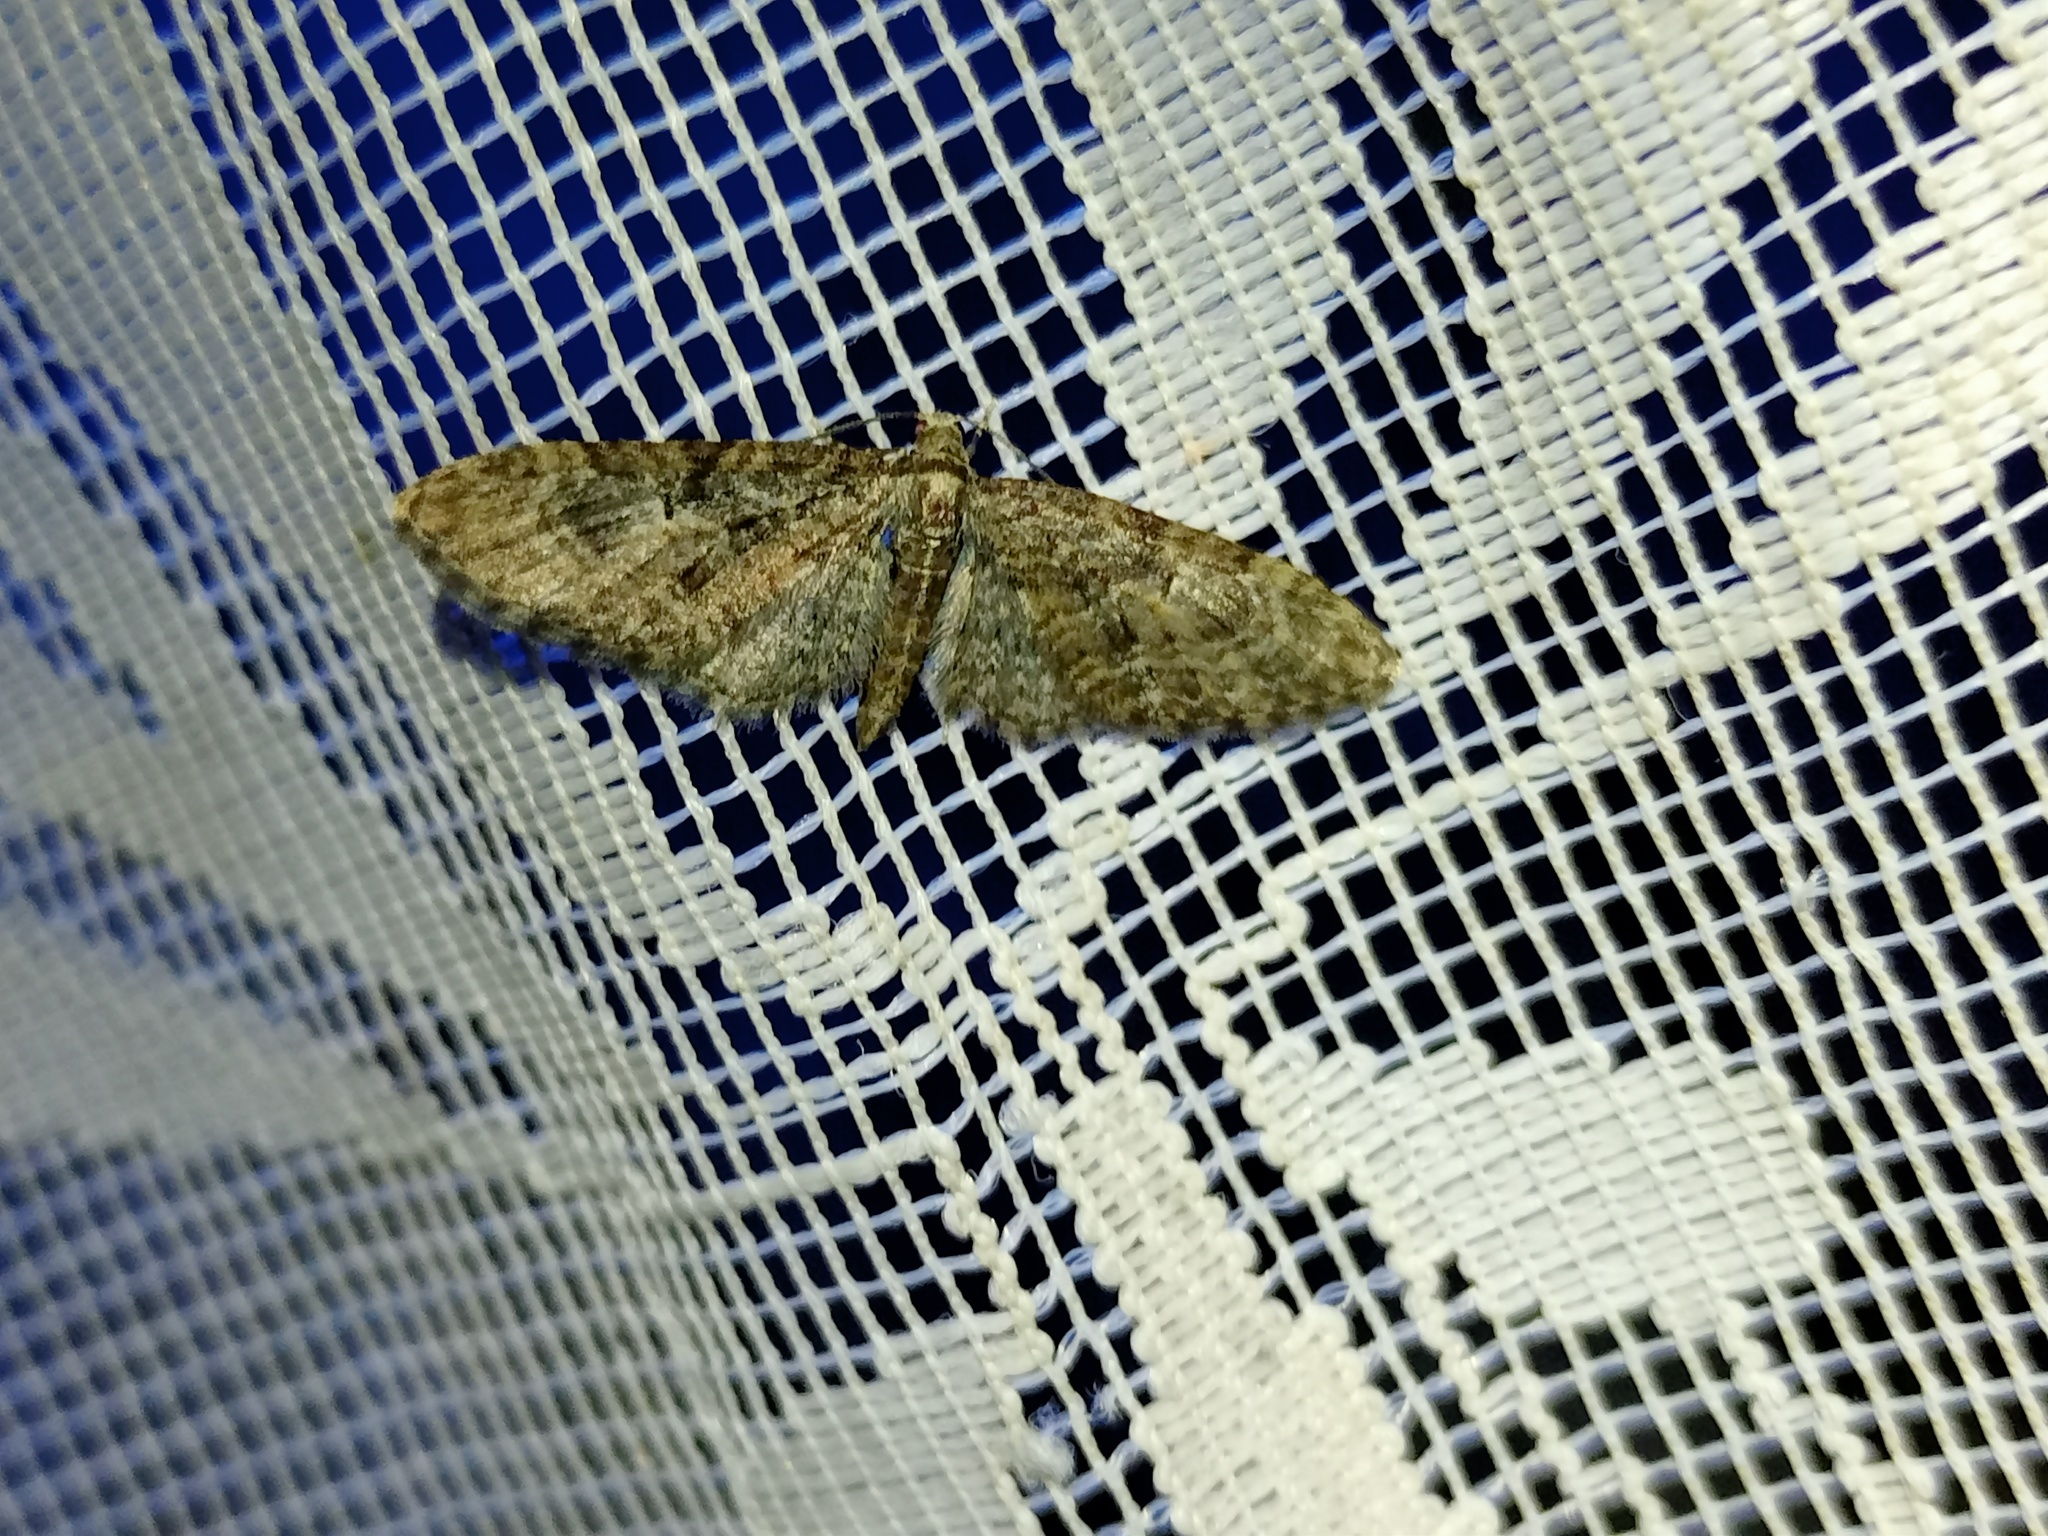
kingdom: Animalia
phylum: Arthropoda
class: Insecta
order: Lepidoptera
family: Geometridae
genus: Eupithecia
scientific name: Eupithecia abbreviata
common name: Brindled pug
